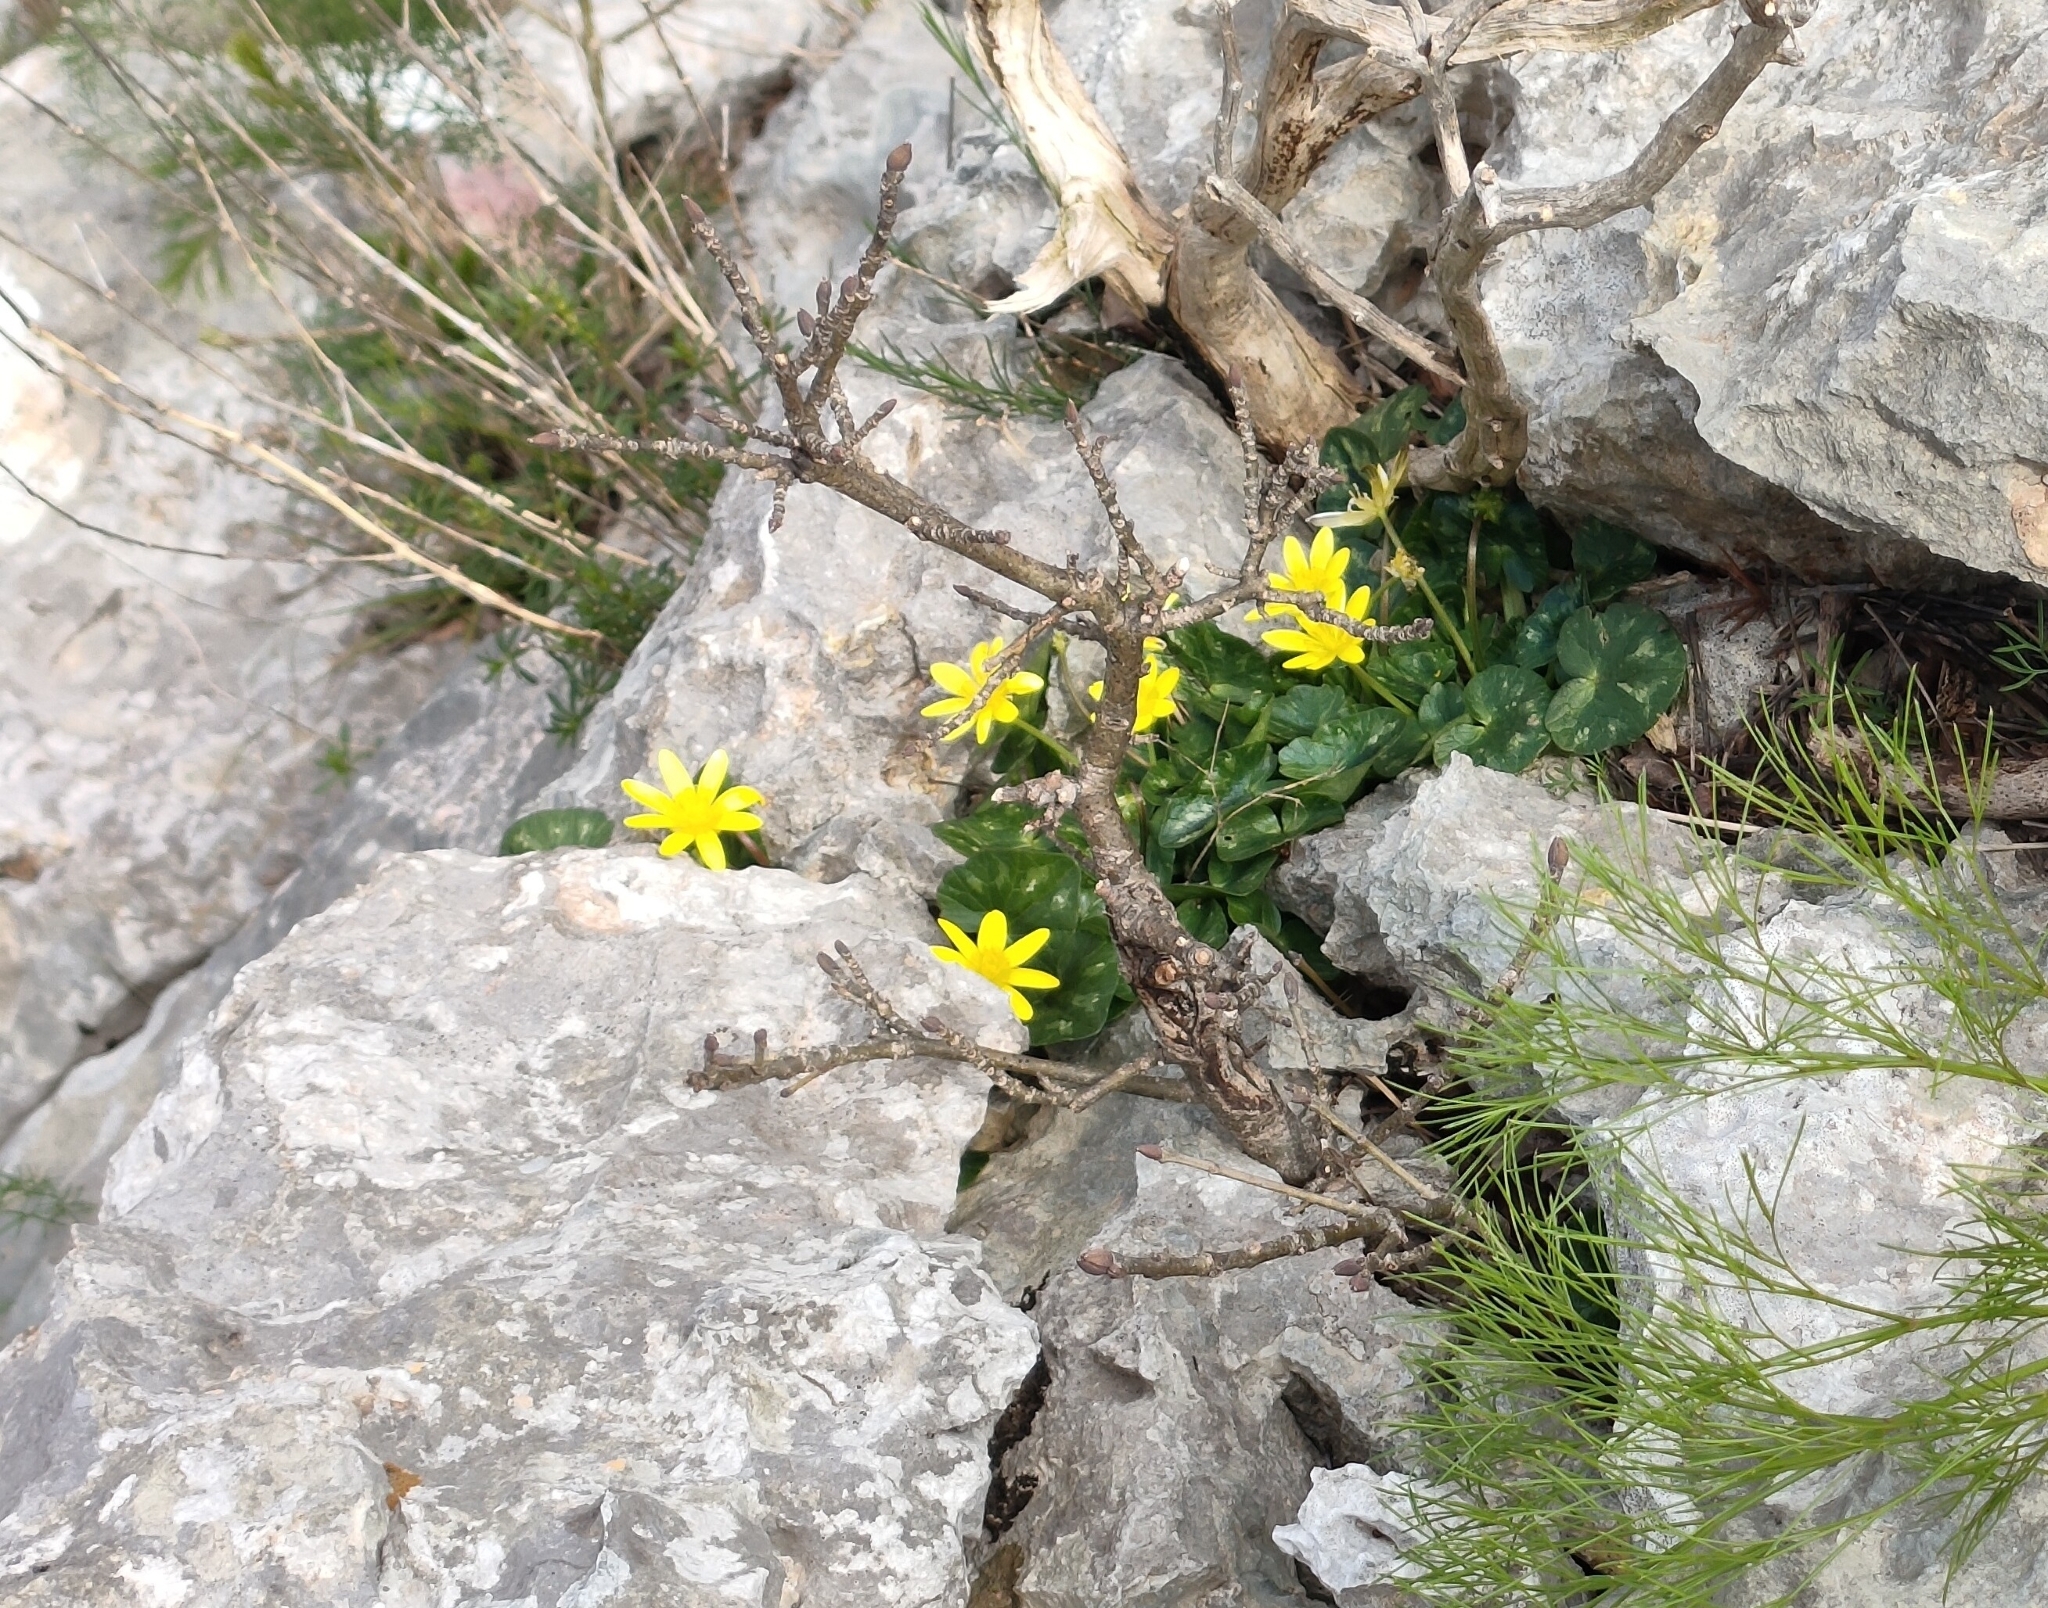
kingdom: Plantae
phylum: Tracheophyta
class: Magnoliopsida
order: Ranunculales
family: Ranunculaceae
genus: Ficaria
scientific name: Ficaria verna
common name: Lesser celandine
